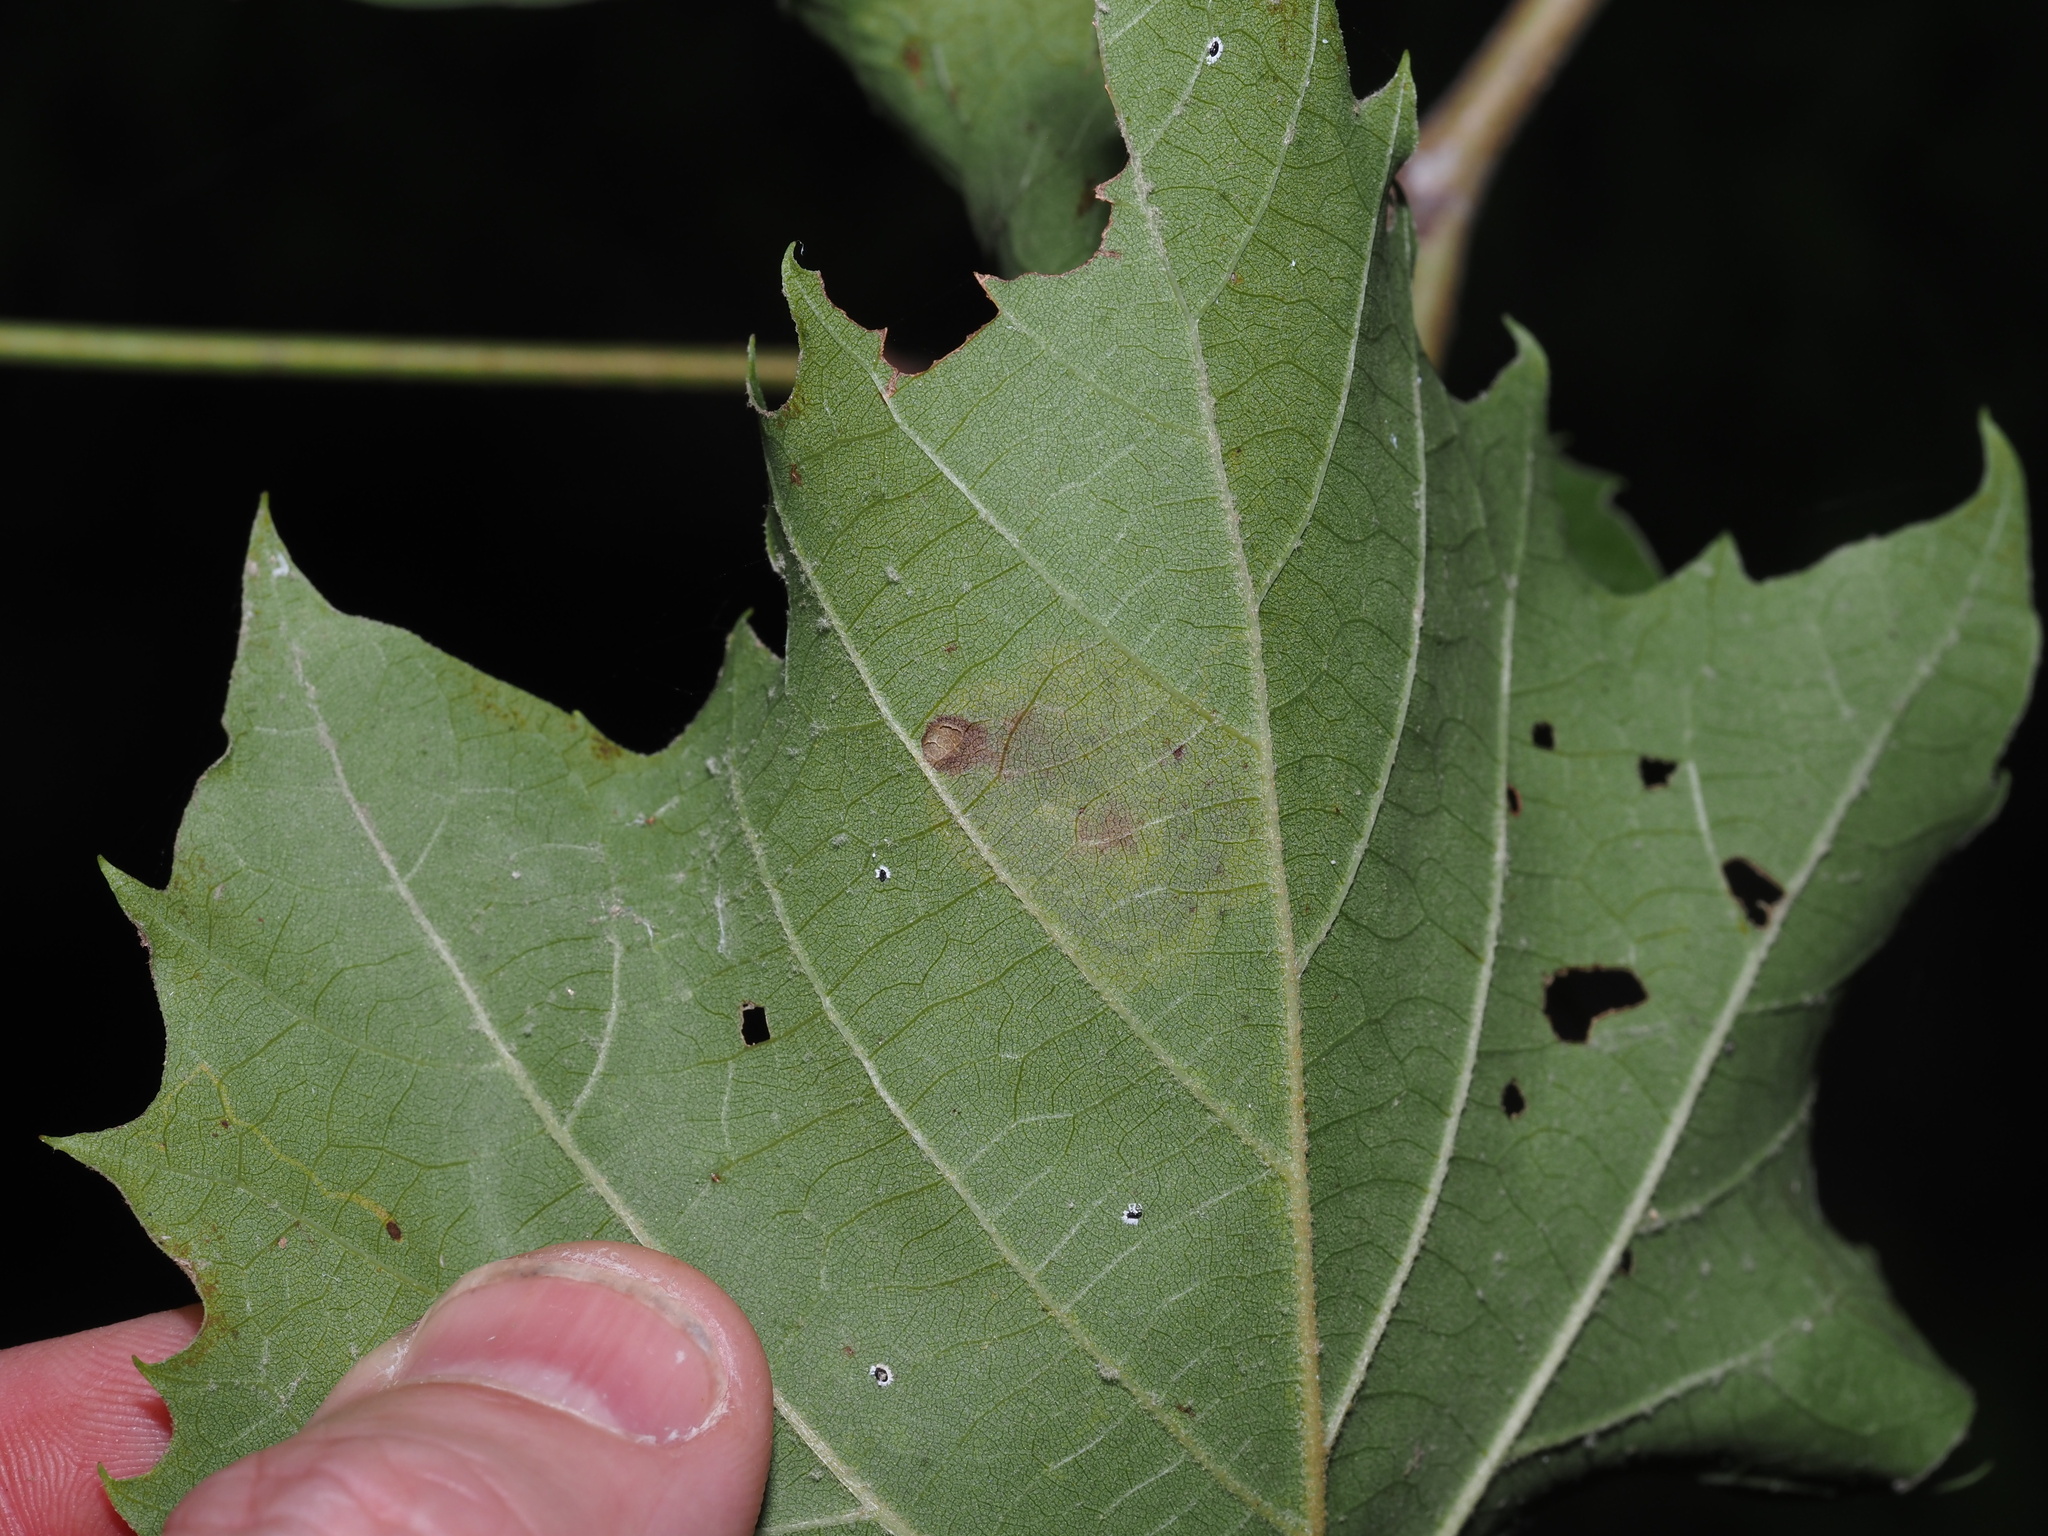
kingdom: Animalia
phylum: Arthropoda
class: Insecta
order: Lepidoptera
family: Nepticulidae
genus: Ectoedemia
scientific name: Ectoedemia platanella
